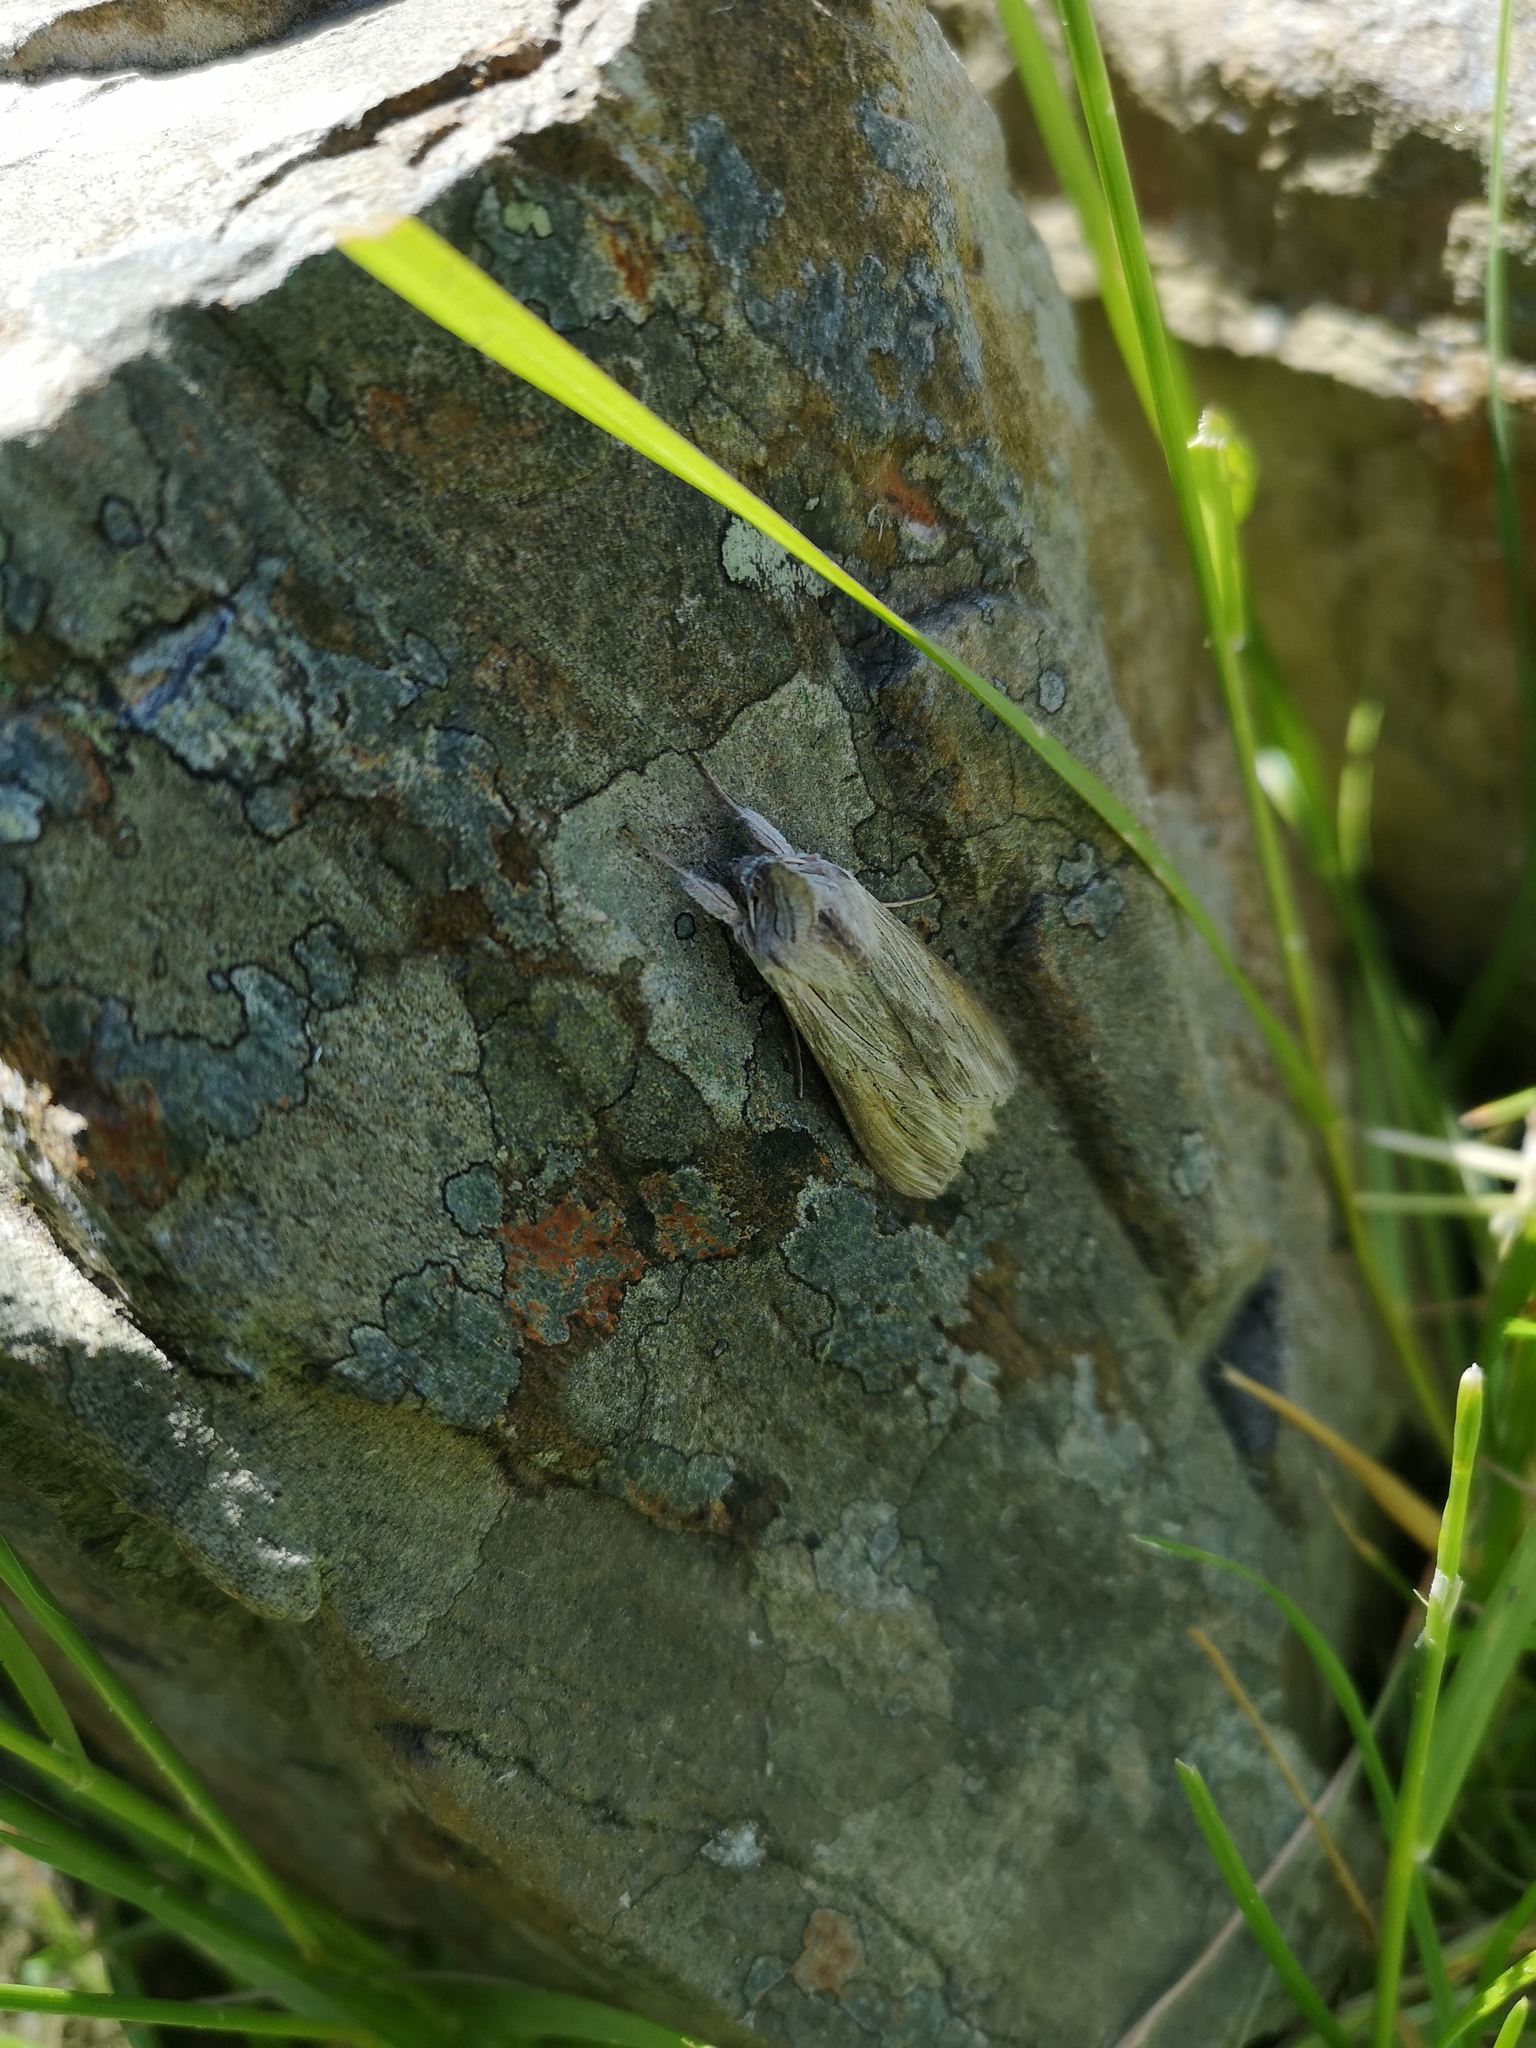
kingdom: Animalia
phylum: Arthropoda
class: Insecta
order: Lepidoptera
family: Noctuidae
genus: Cucullia
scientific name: Cucullia umbratica
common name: Shark
